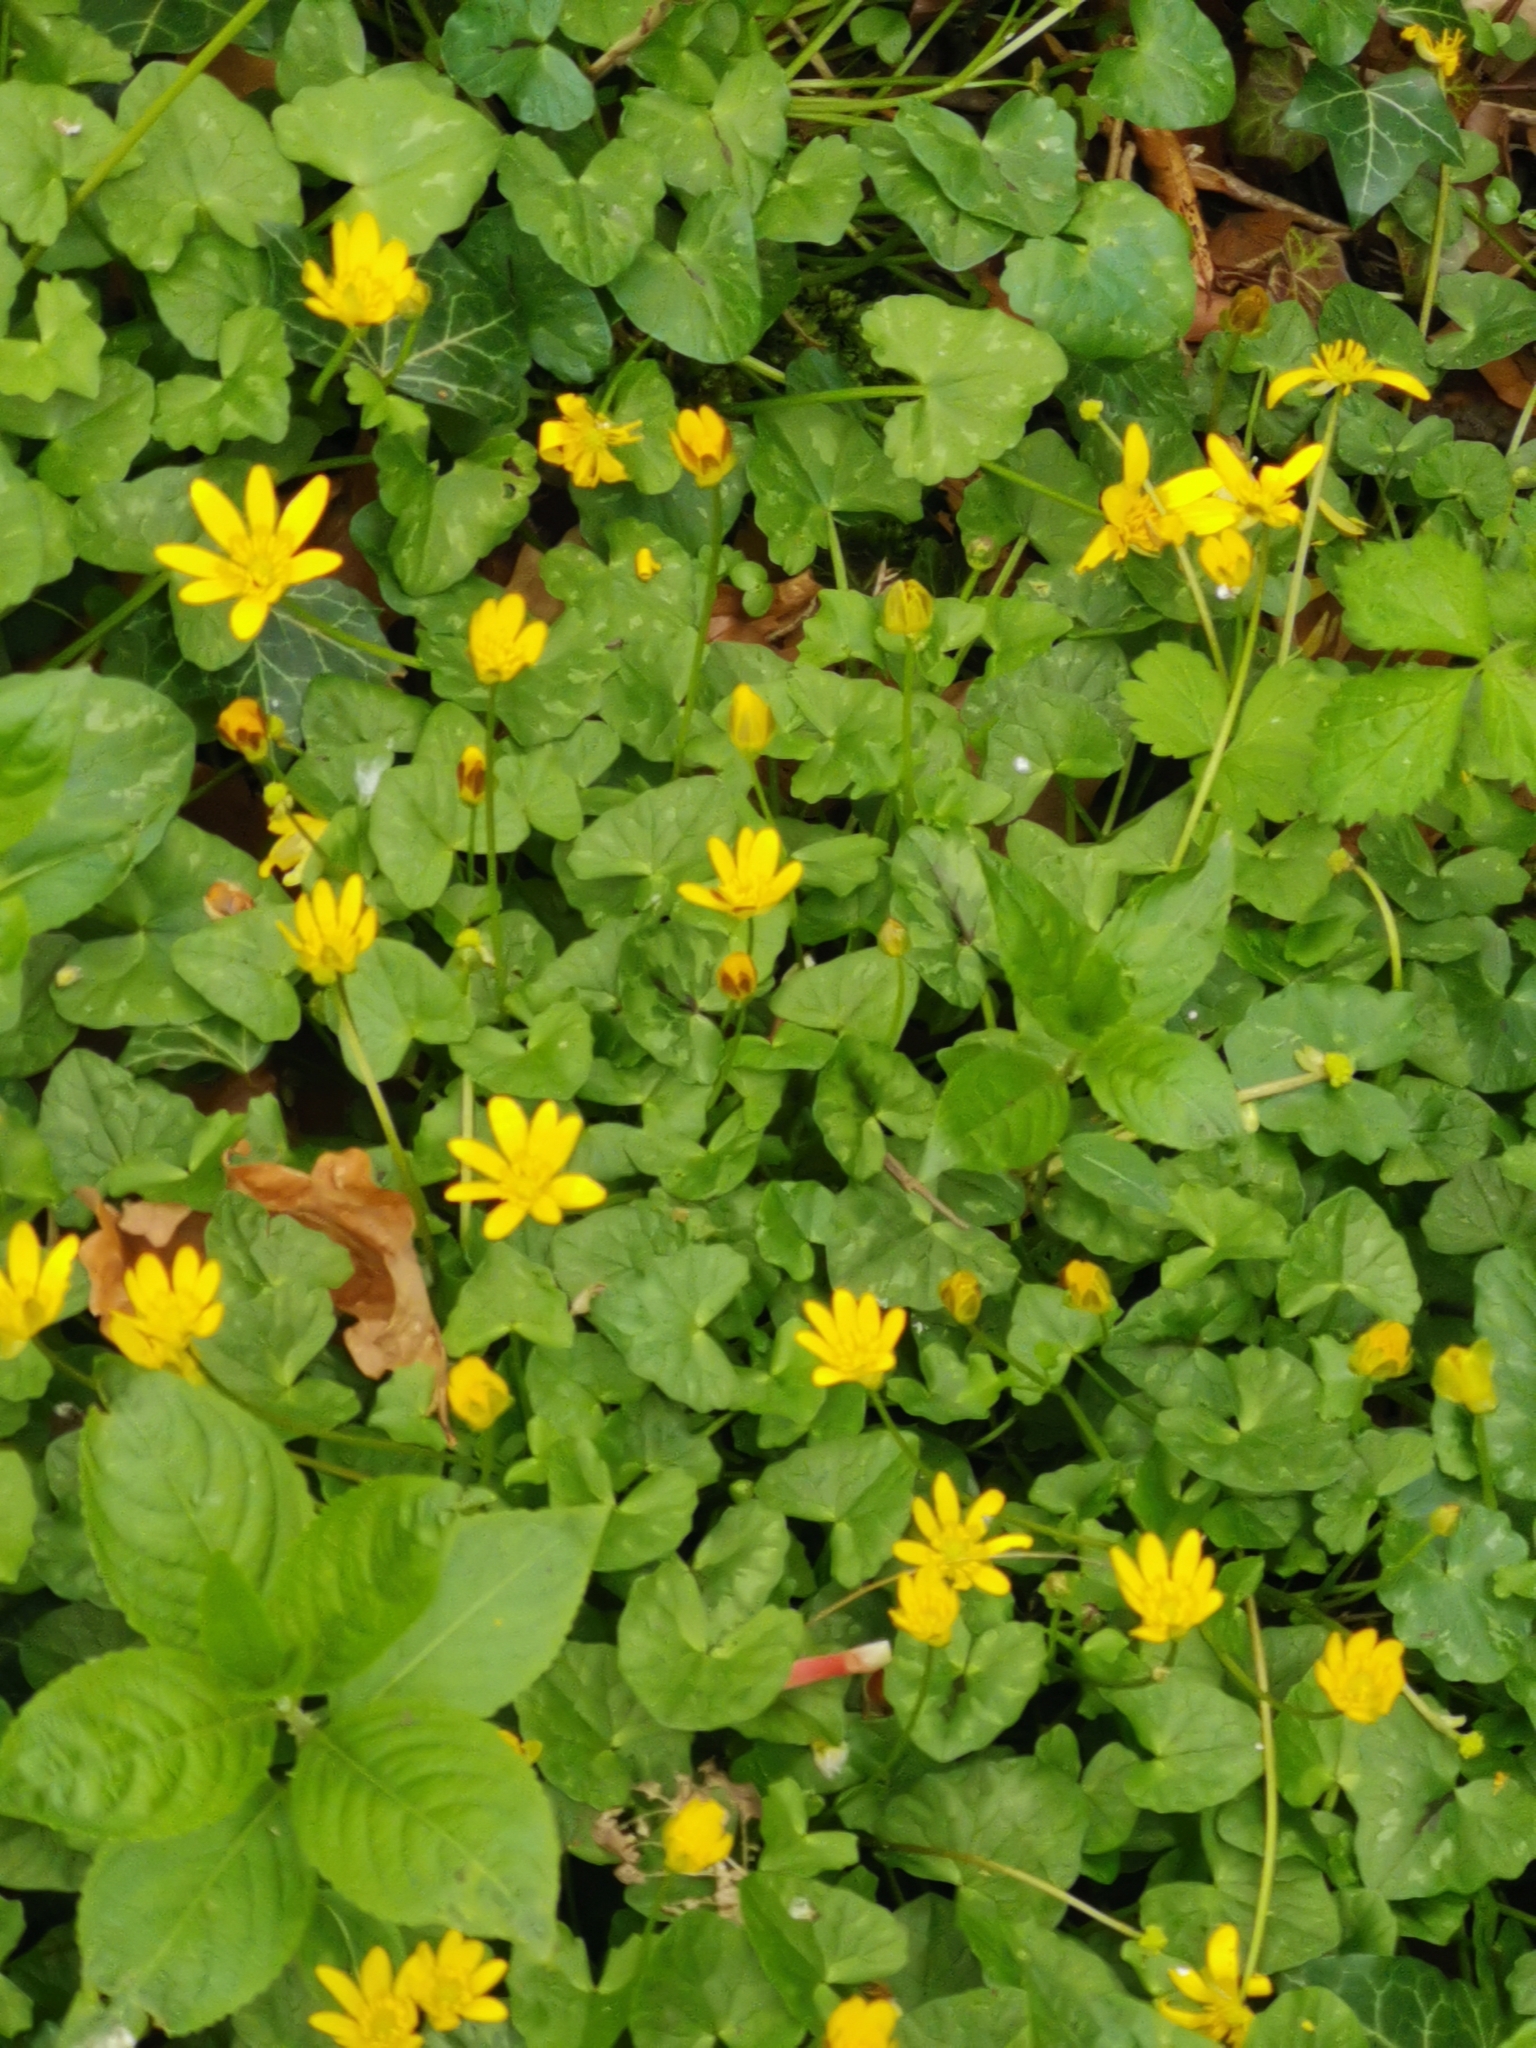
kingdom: Plantae
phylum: Tracheophyta
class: Magnoliopsida
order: Ranunculales
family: Ranunculaceae
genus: Ficaria
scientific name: Ficaria verna
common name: Lesser celandine
